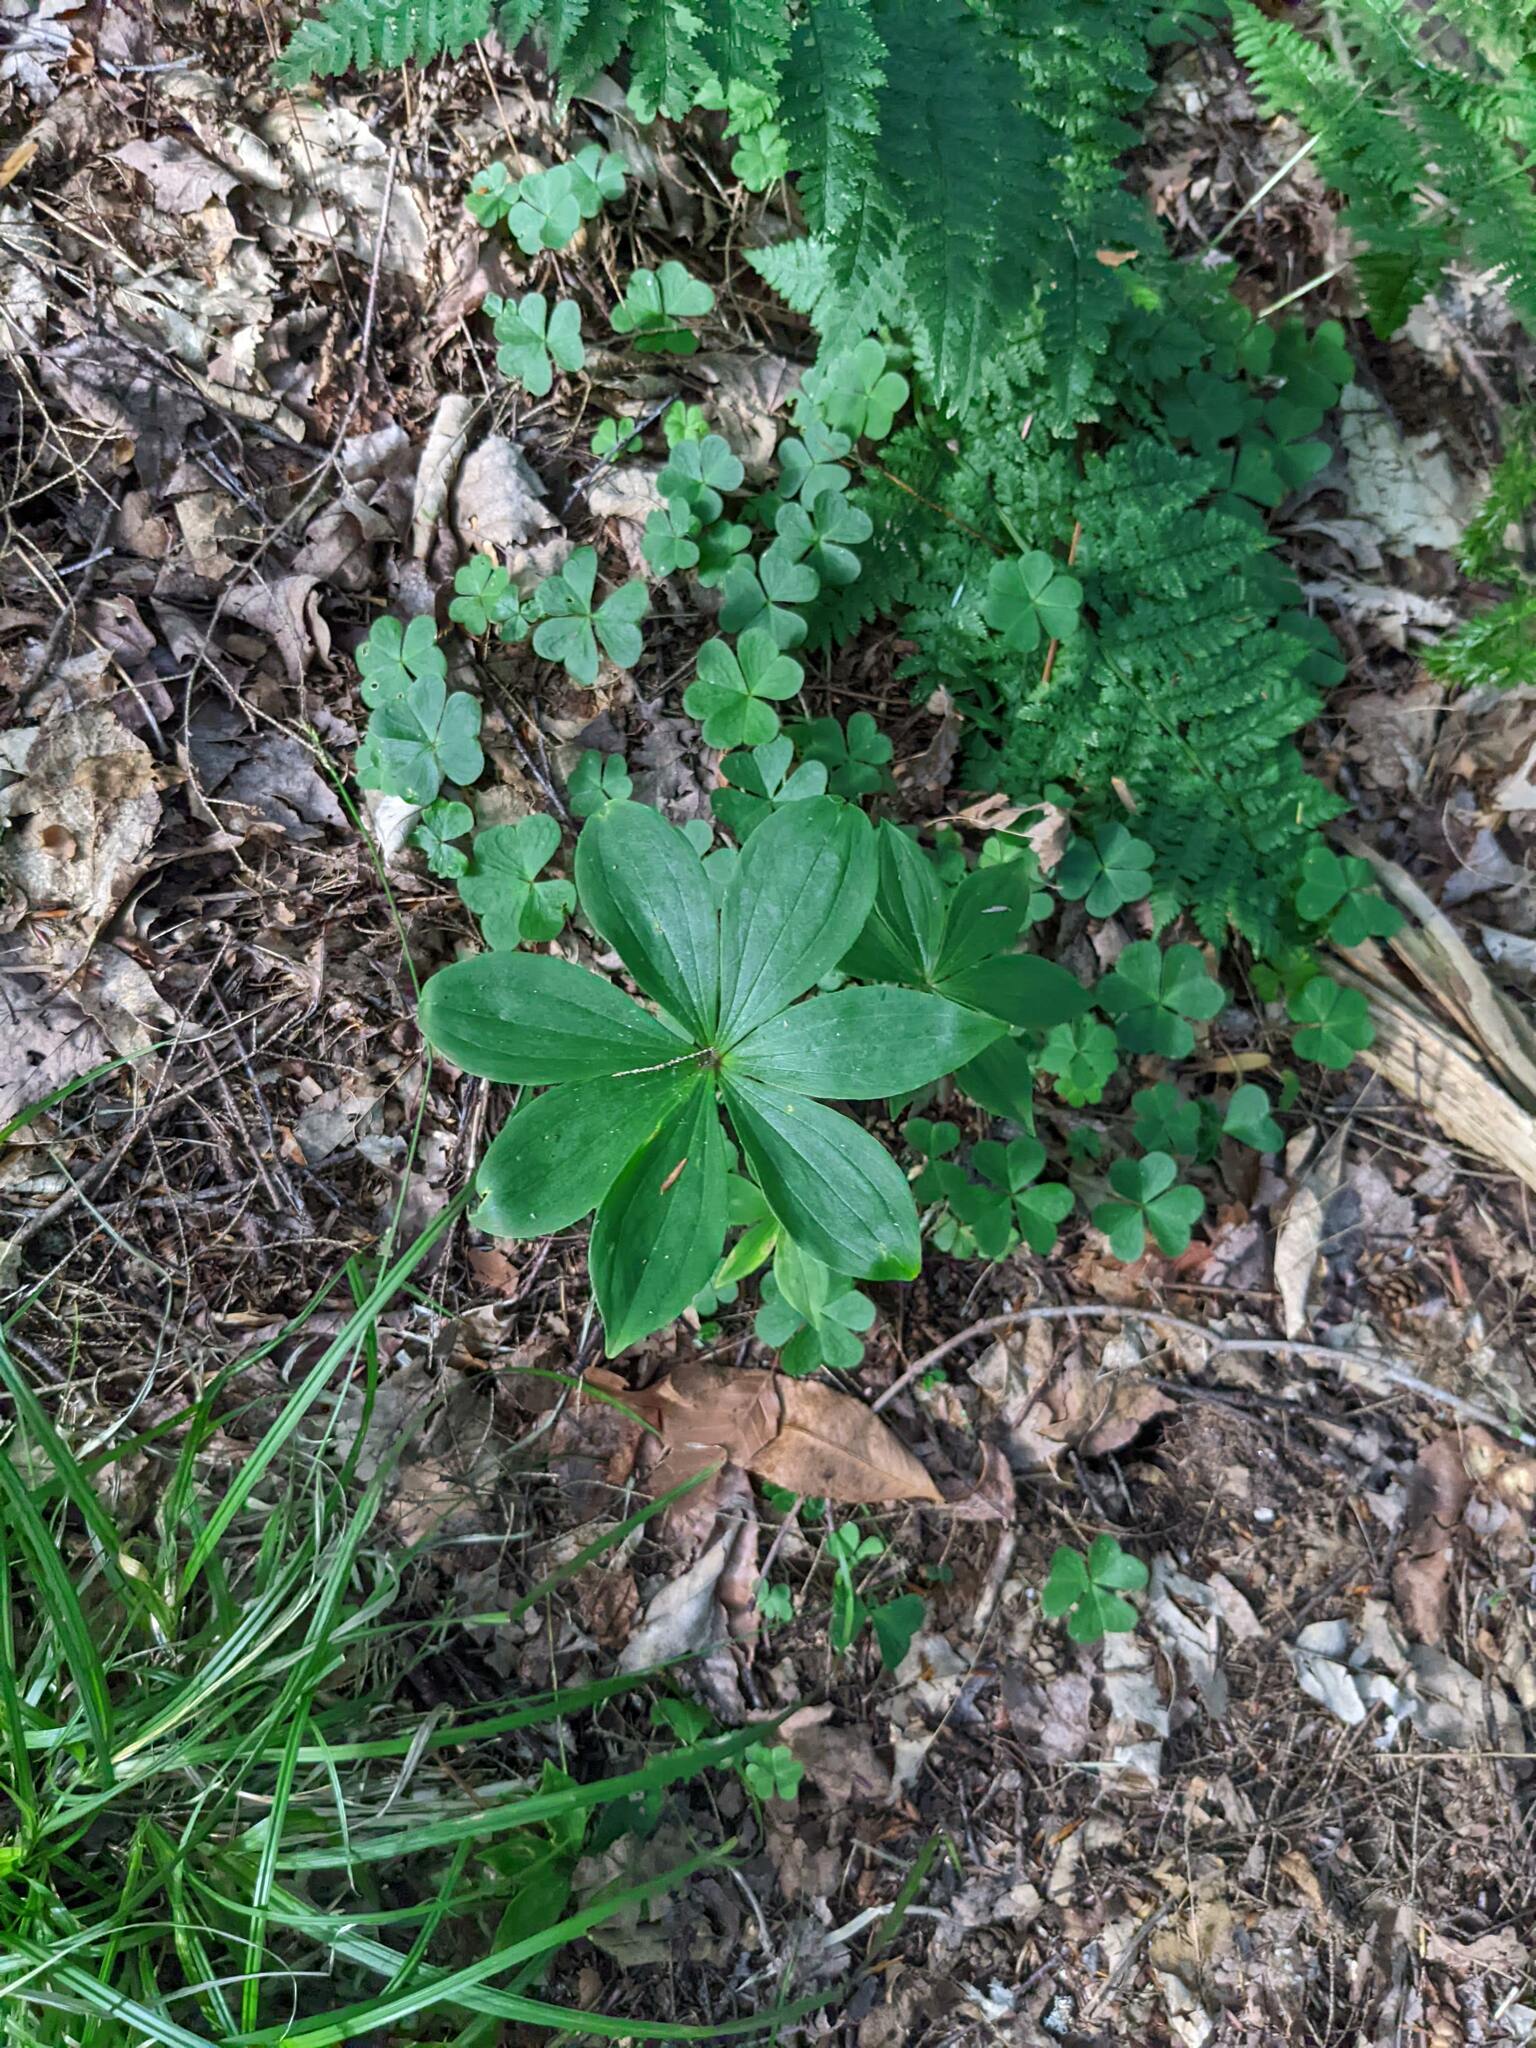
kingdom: Plantae
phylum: Tracheophyta
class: Liliopsida
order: Liliales
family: Liliaceae
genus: Medeola
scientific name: Medeola virginiana
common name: Indian cucumber-root
